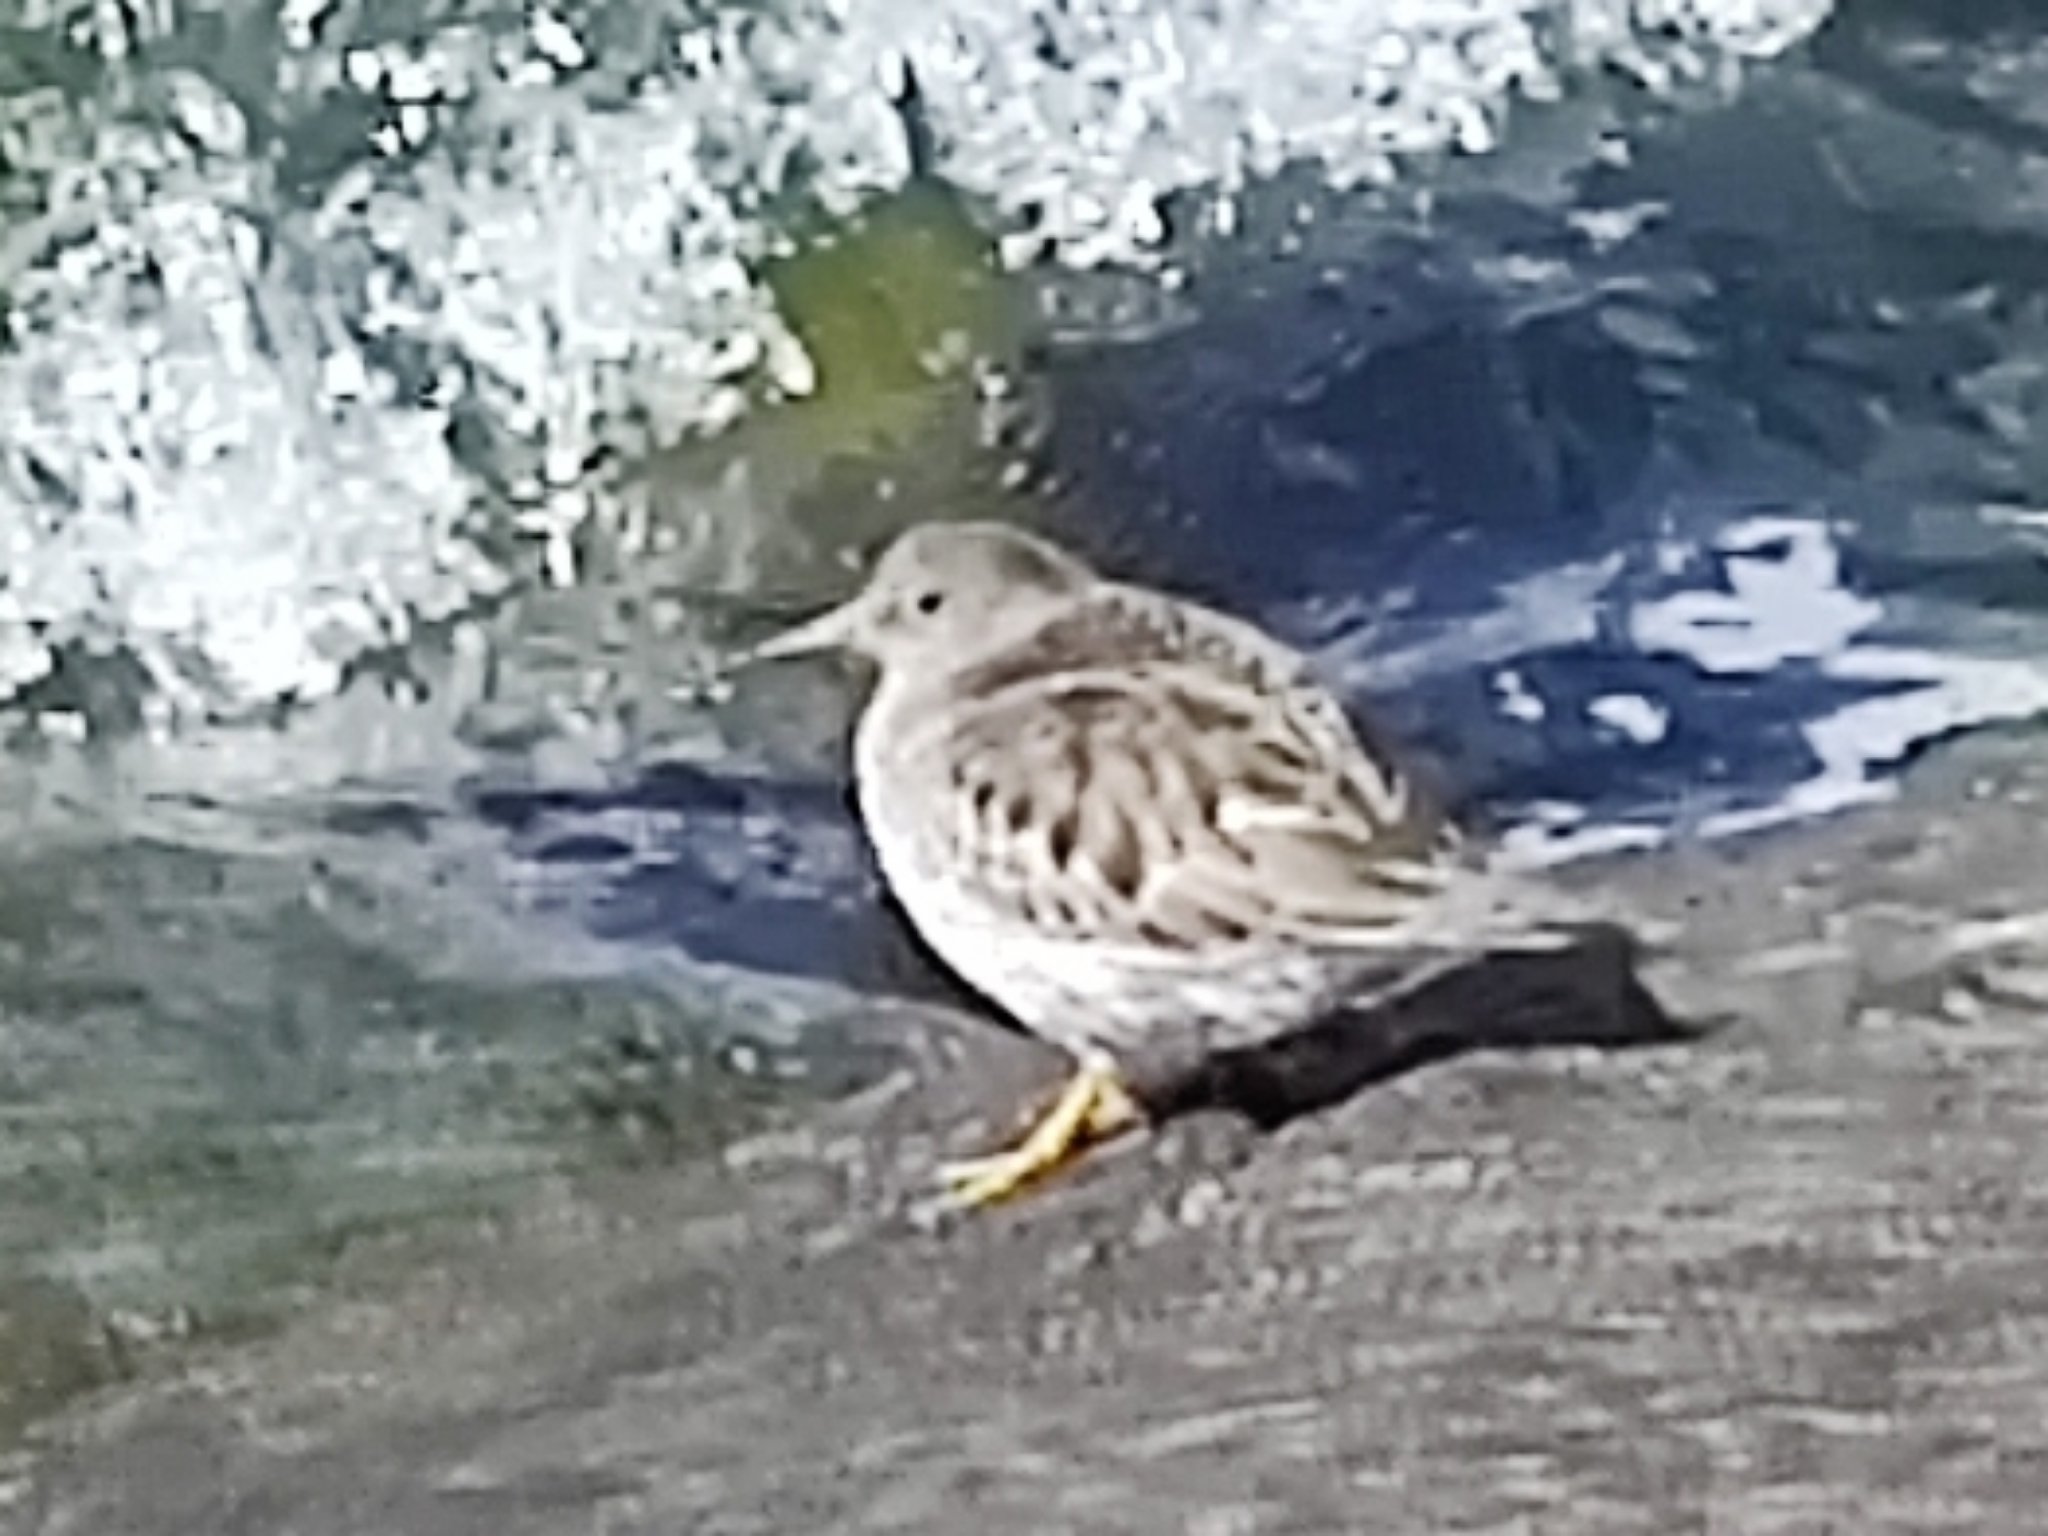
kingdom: Animalia
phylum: Chordata
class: Aves
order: Charadriiformes
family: Scolopacidae
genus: Calidris
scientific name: Calidris maritima
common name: Purple sandpiper
